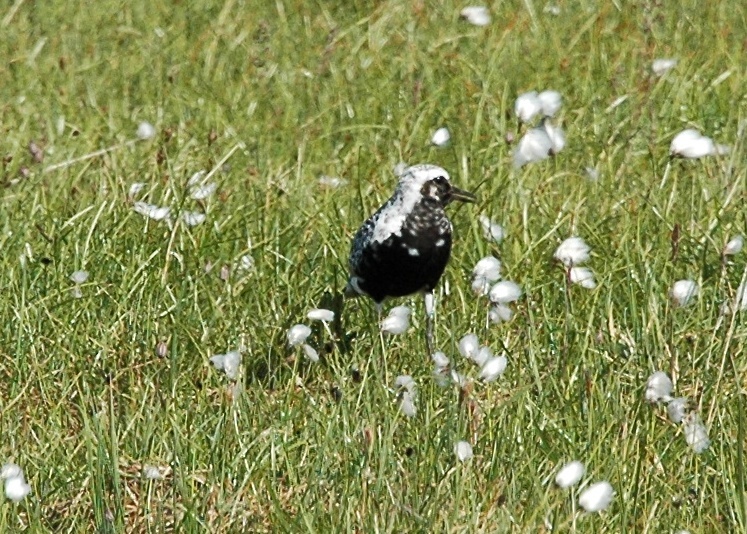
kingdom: Animalia
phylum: Chordata
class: Aves
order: Charadriiformes
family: Charadriidae
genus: Pluvialis
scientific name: Pluvialis squatarola
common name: Grey plover
